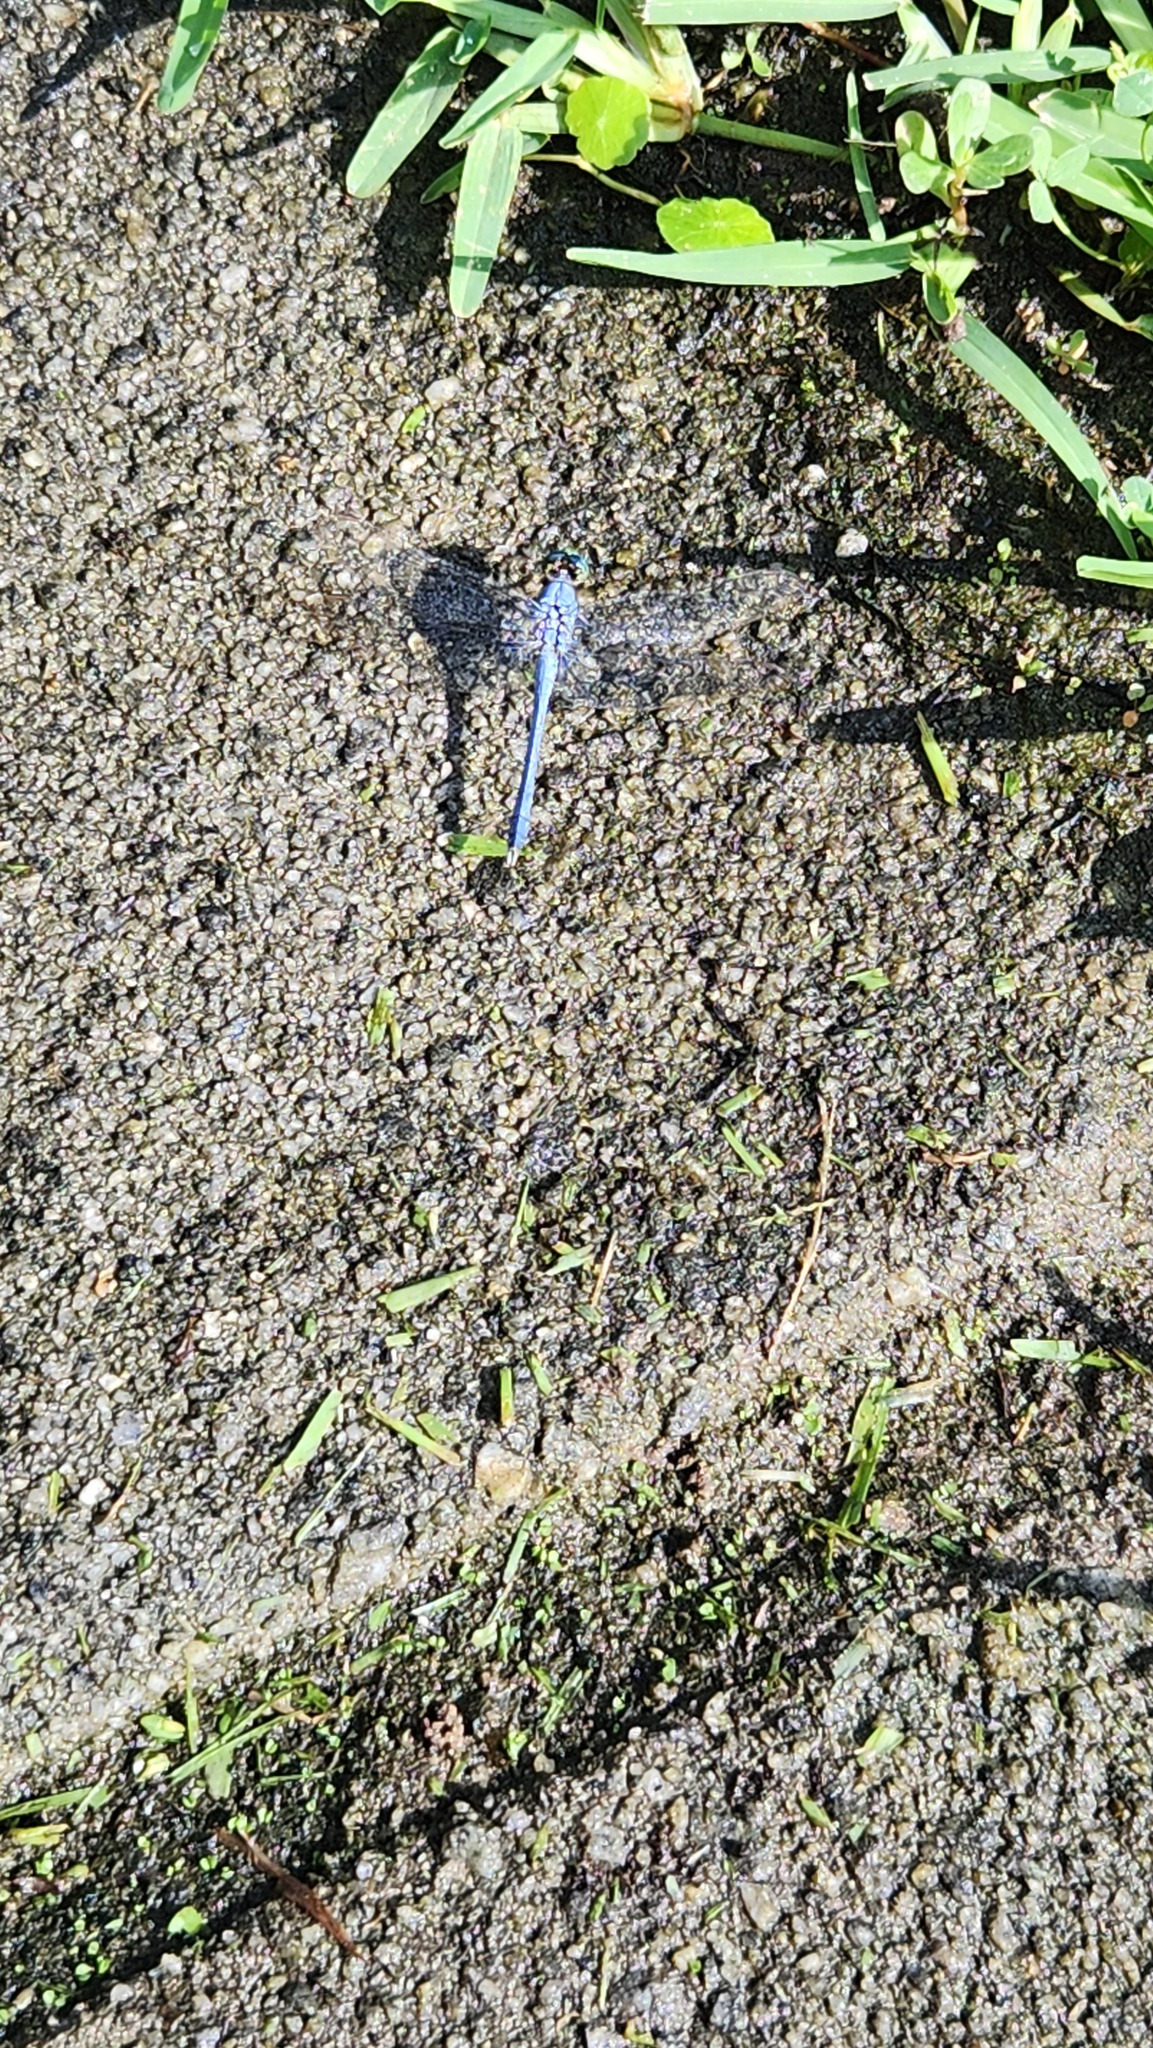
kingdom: Animalia
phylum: Arthropoda
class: Insecta
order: Odonata
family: Libellulidae
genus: Erythemis
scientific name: Erythemis simplicicollis
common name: Eastern pondhawk
